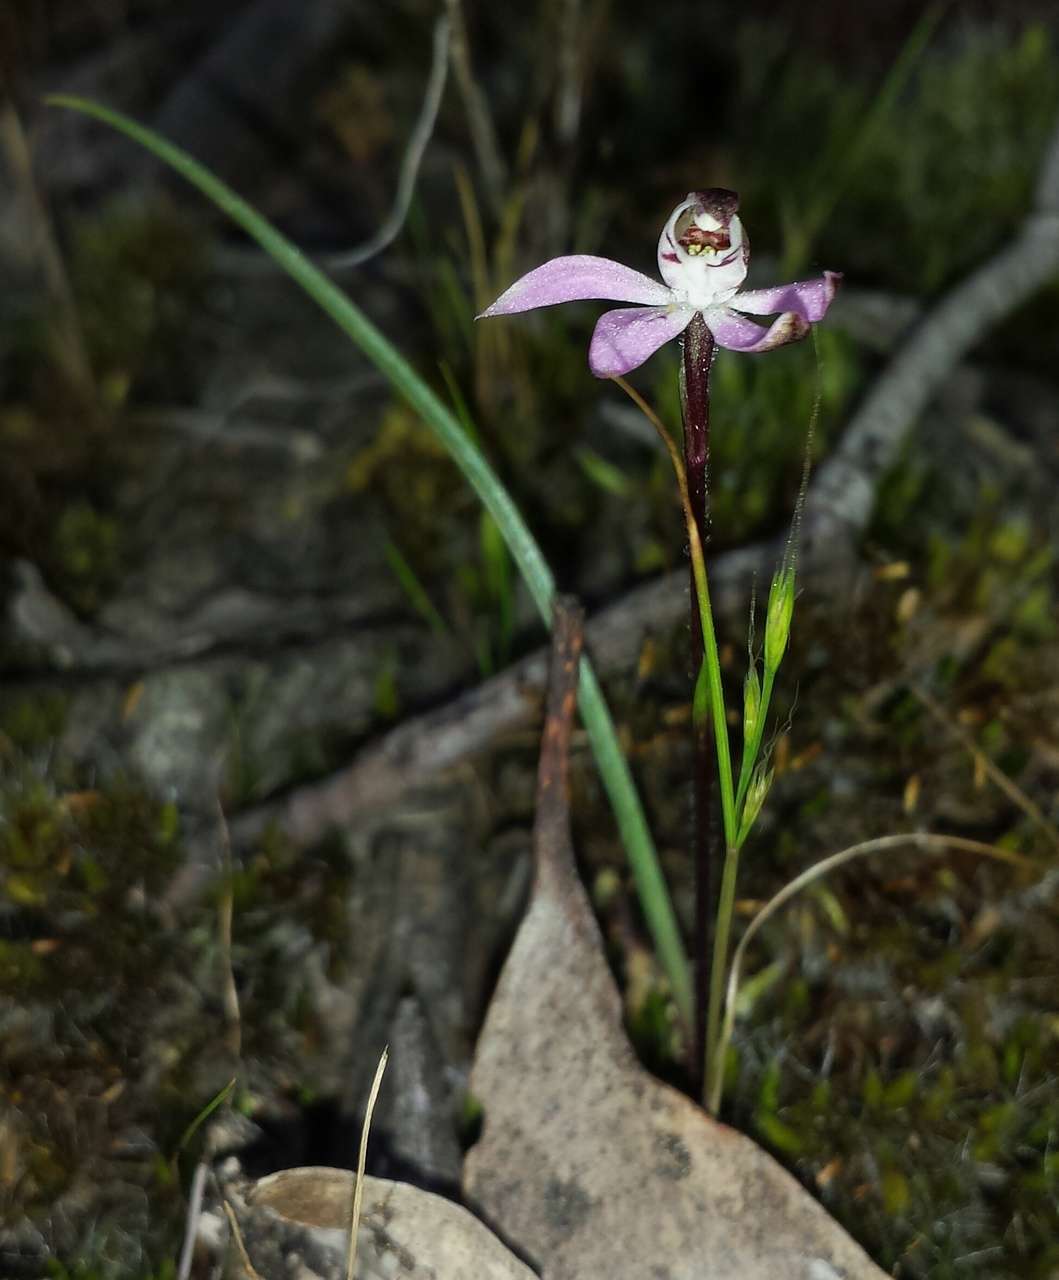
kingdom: Plantae
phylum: Tracheophyta
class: Liliopsida
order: Asparagales
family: Orchidaceae
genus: Caladenia
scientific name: Caladenia pusilla
